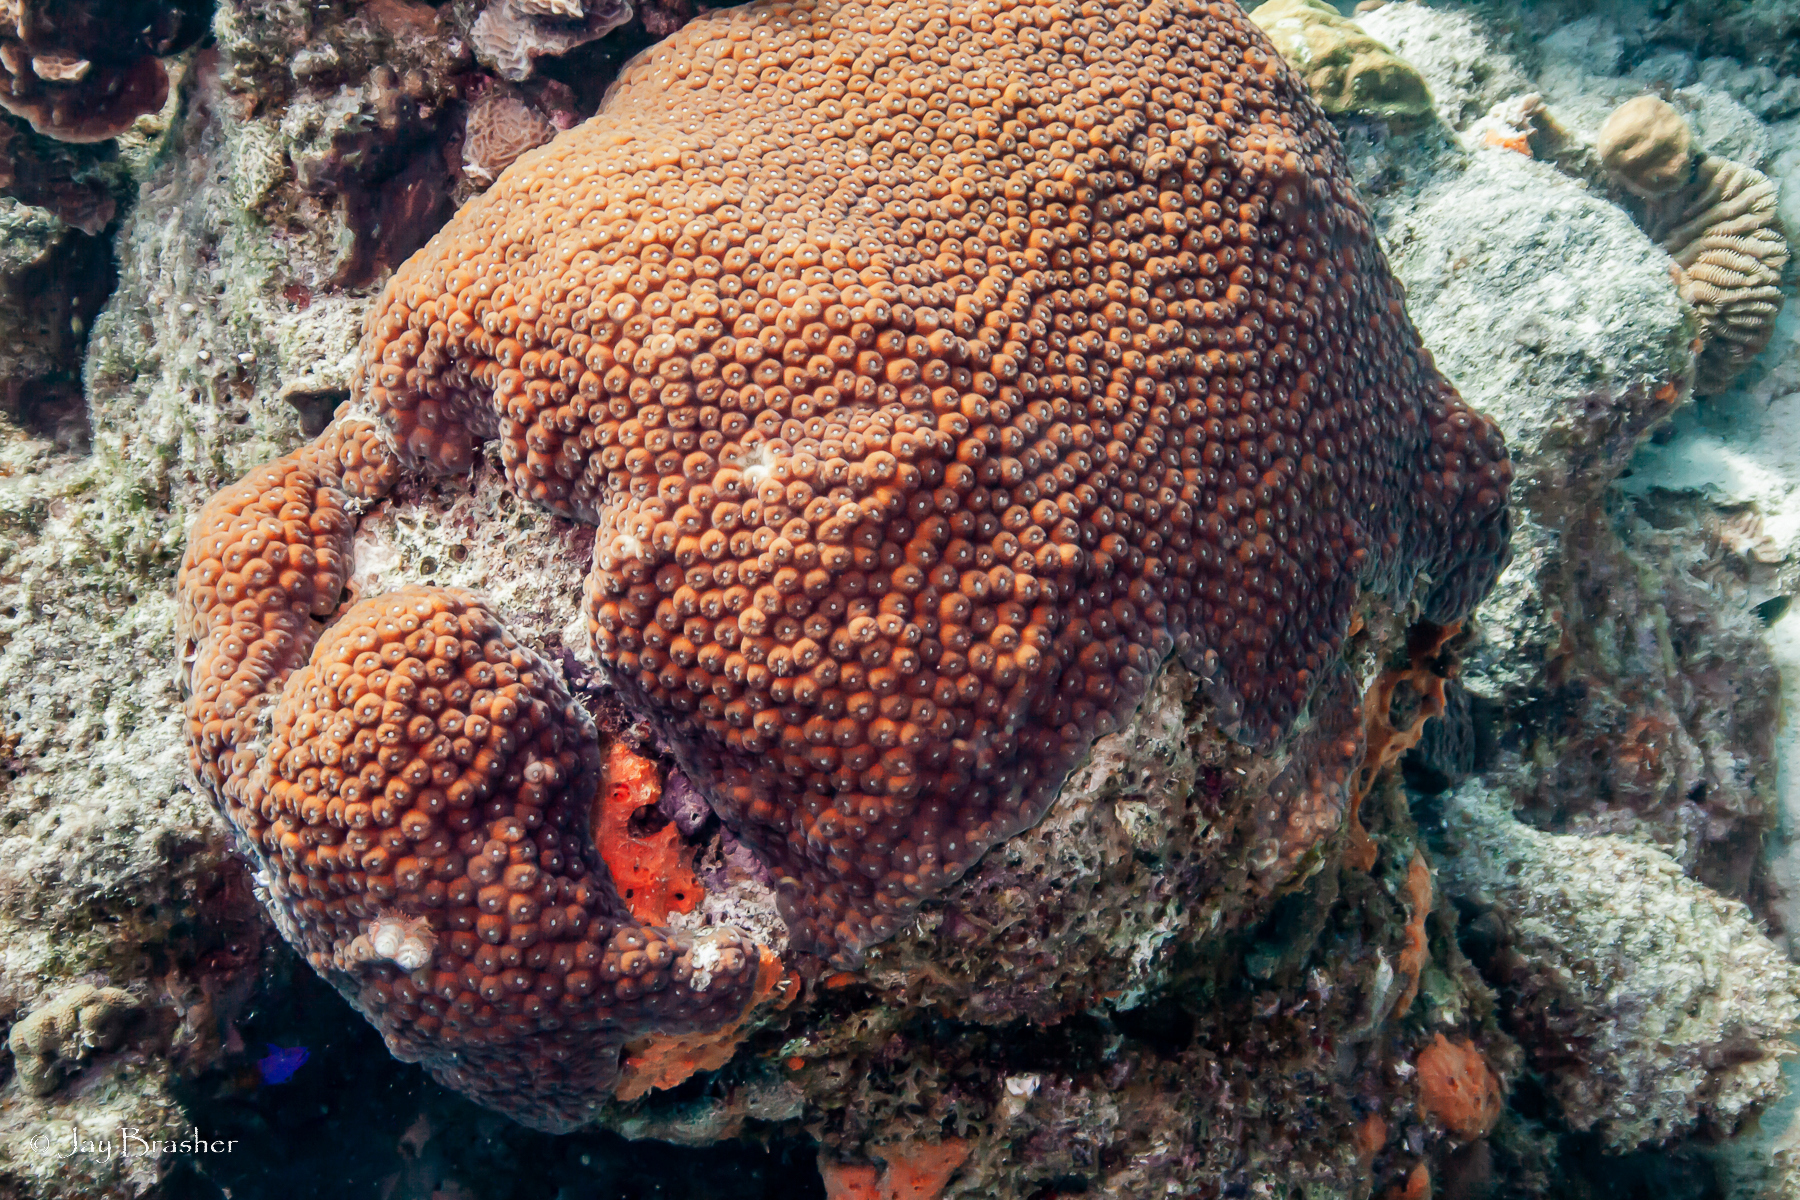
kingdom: Animalia
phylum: Cnidaria
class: Anthozoa
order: Scleractinia
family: Montastraeidae
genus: Montastraea
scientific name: Montastraea cavernosa
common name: Great star coral
